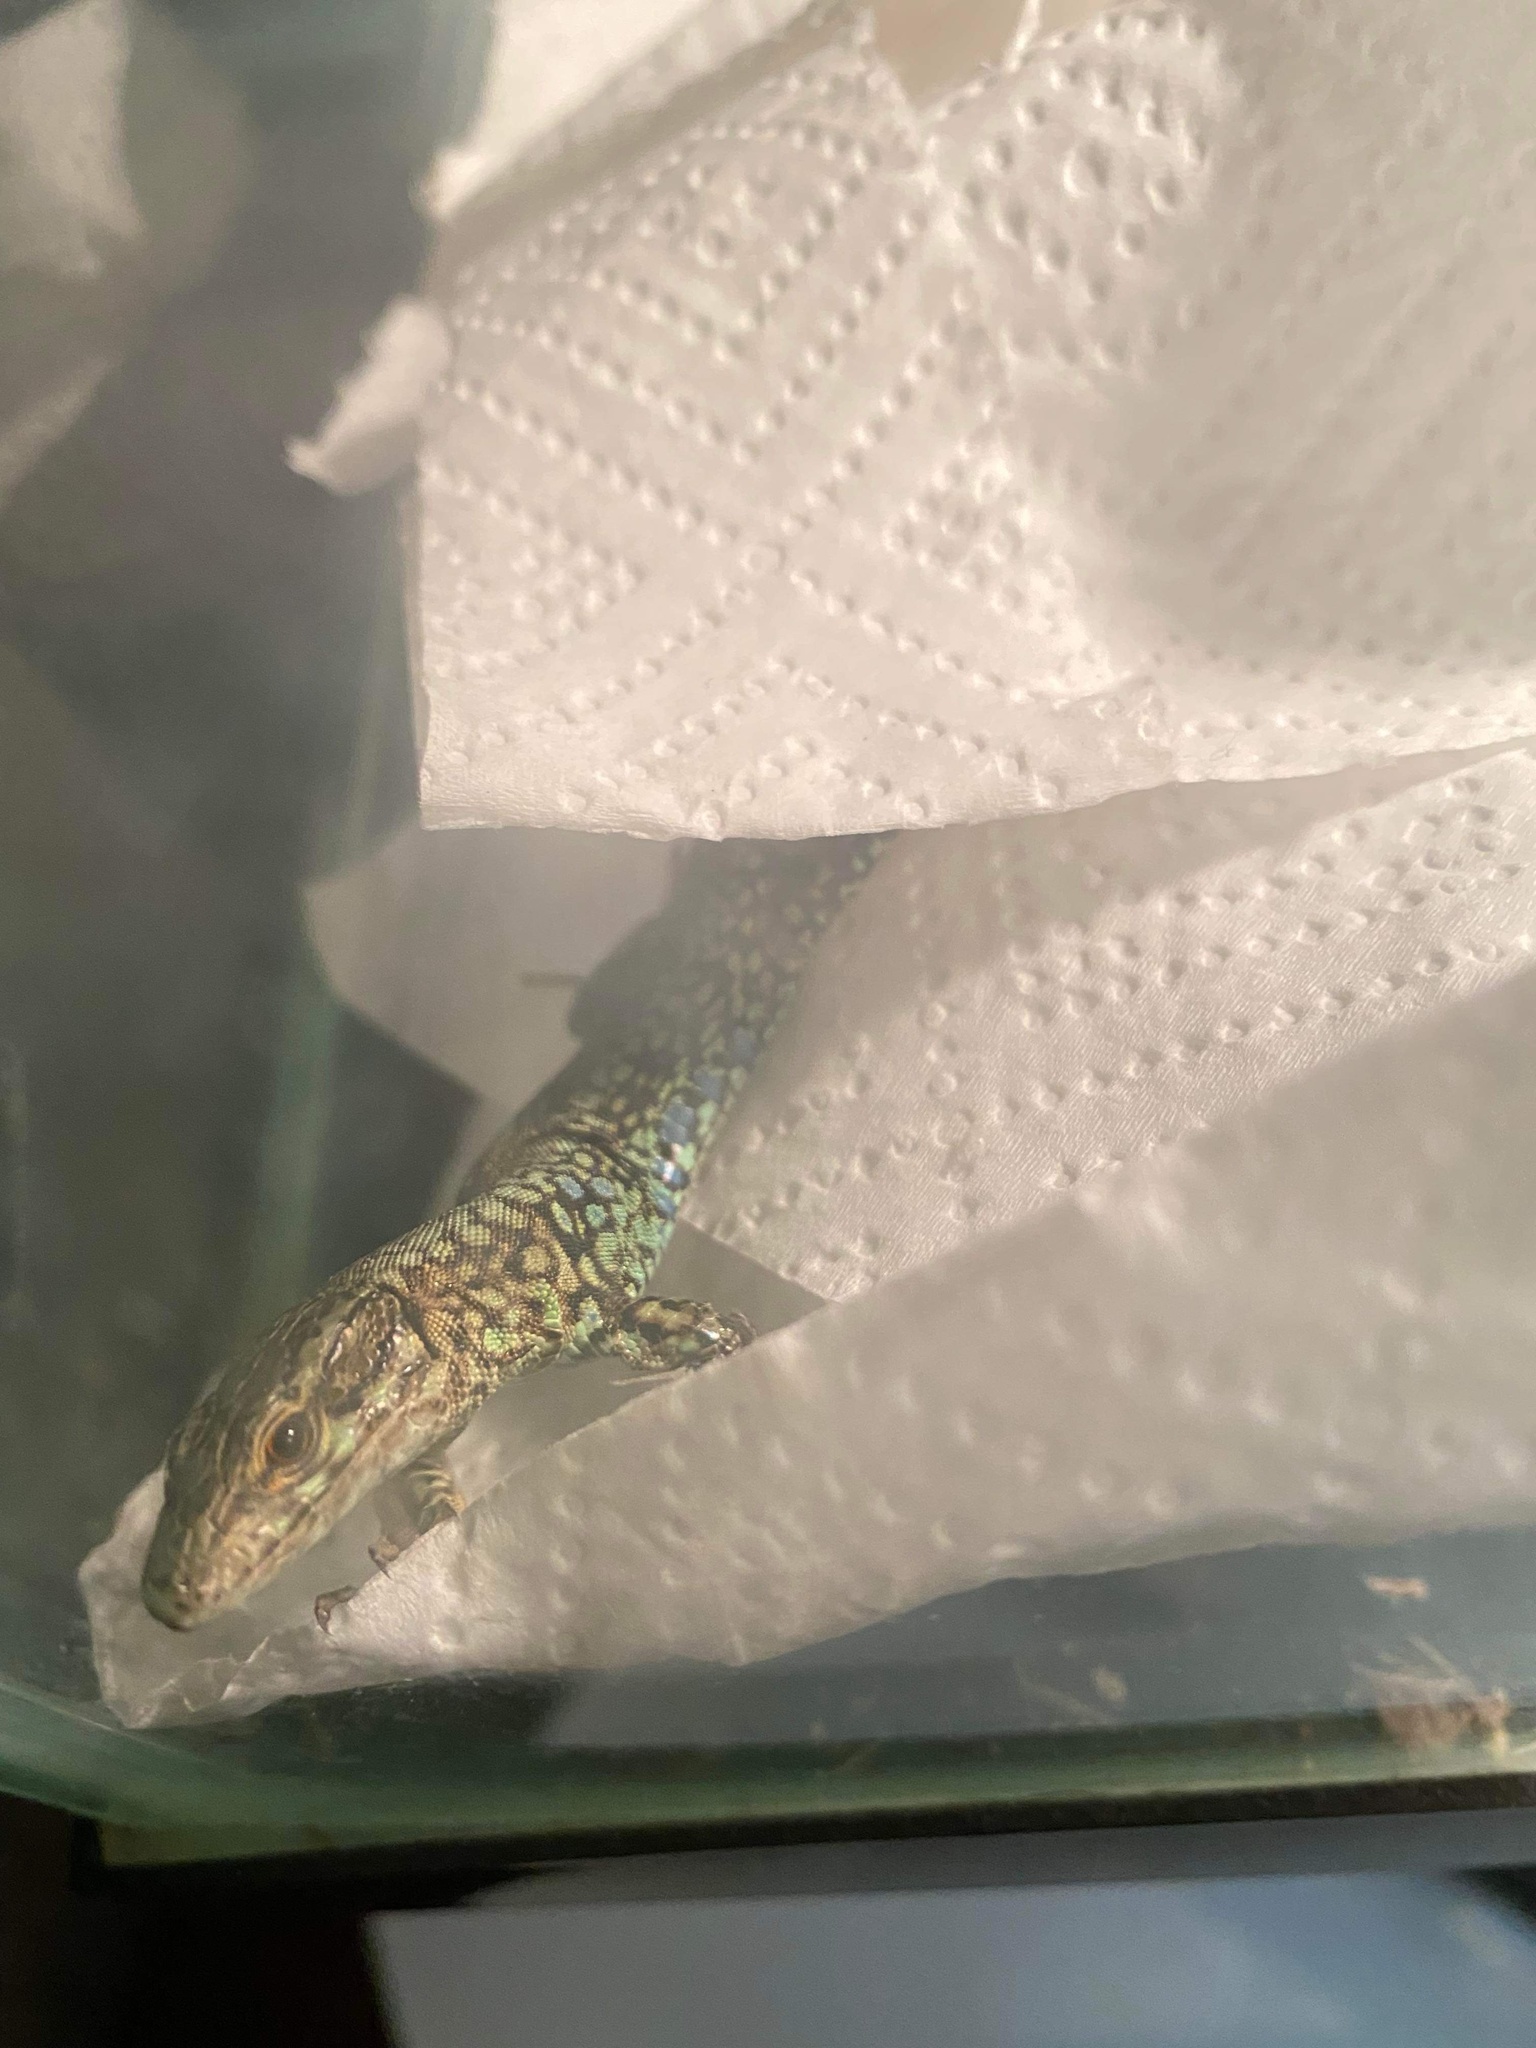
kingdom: Animalia
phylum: Chordata
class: Squamata
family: Lacertidae
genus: Podarcis
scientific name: Podarcis muralis
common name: Common wall lizard
